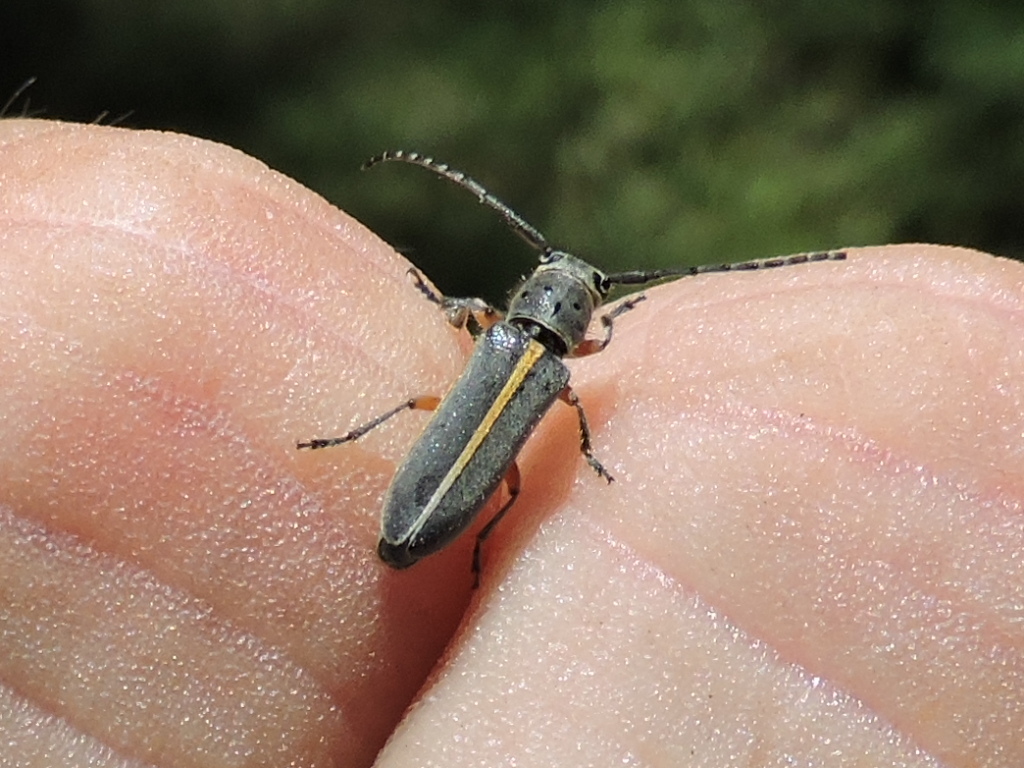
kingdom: Animalia
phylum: Arthropoda
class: Insecta
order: Coleoptera
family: Cerambycidae
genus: Mecas
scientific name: Mecas pergrata
